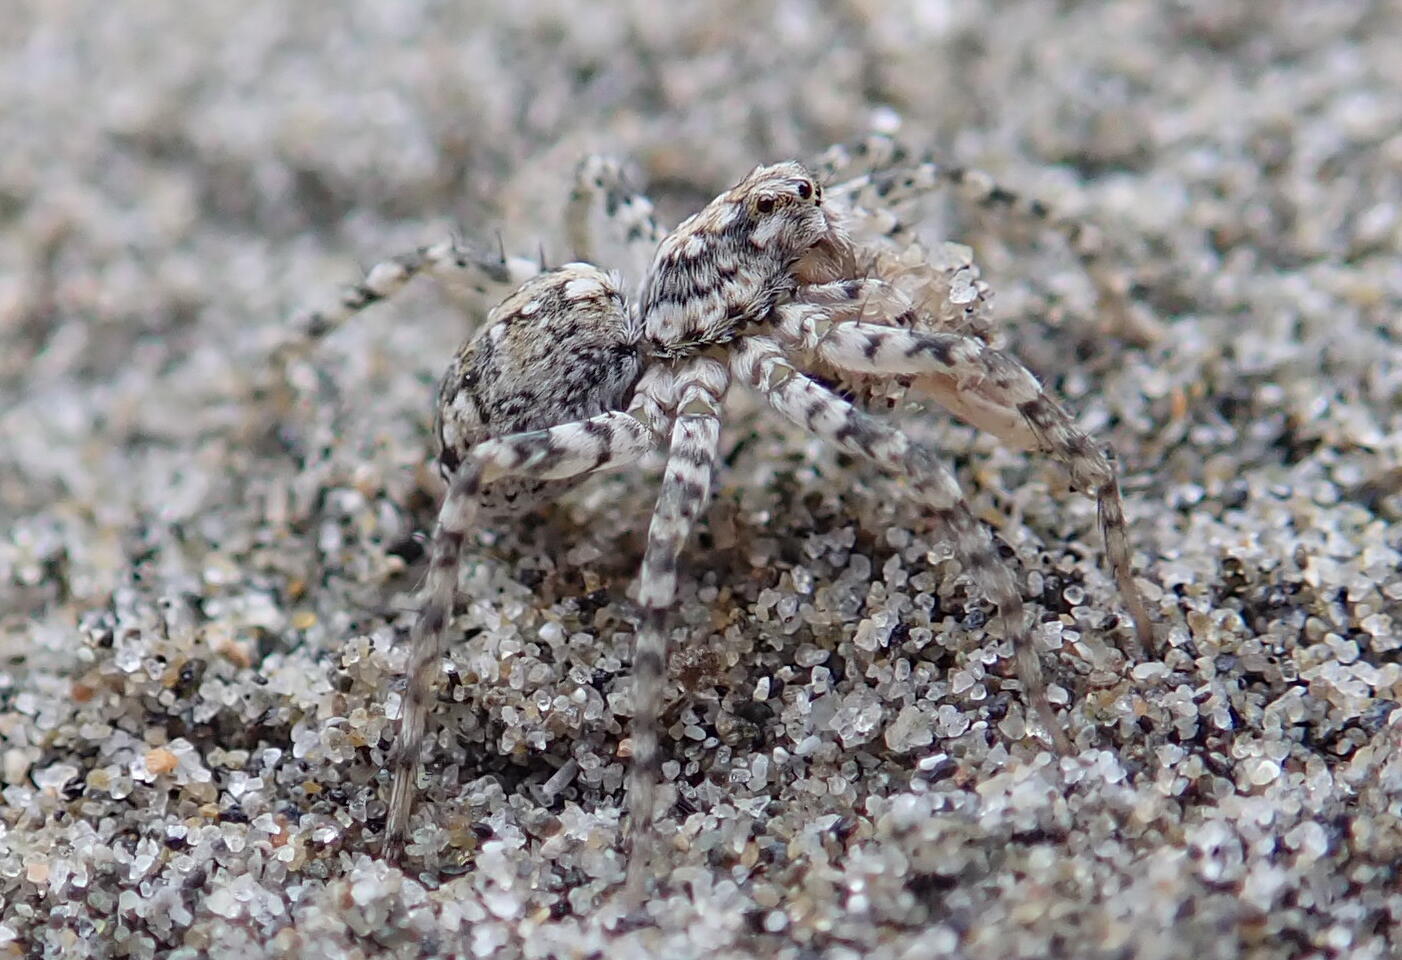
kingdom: Animalia
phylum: Arthropoda
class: Arachnida
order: Araneae
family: Lycosidae
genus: Anoteropsis
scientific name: Anoteropsis litoralis
